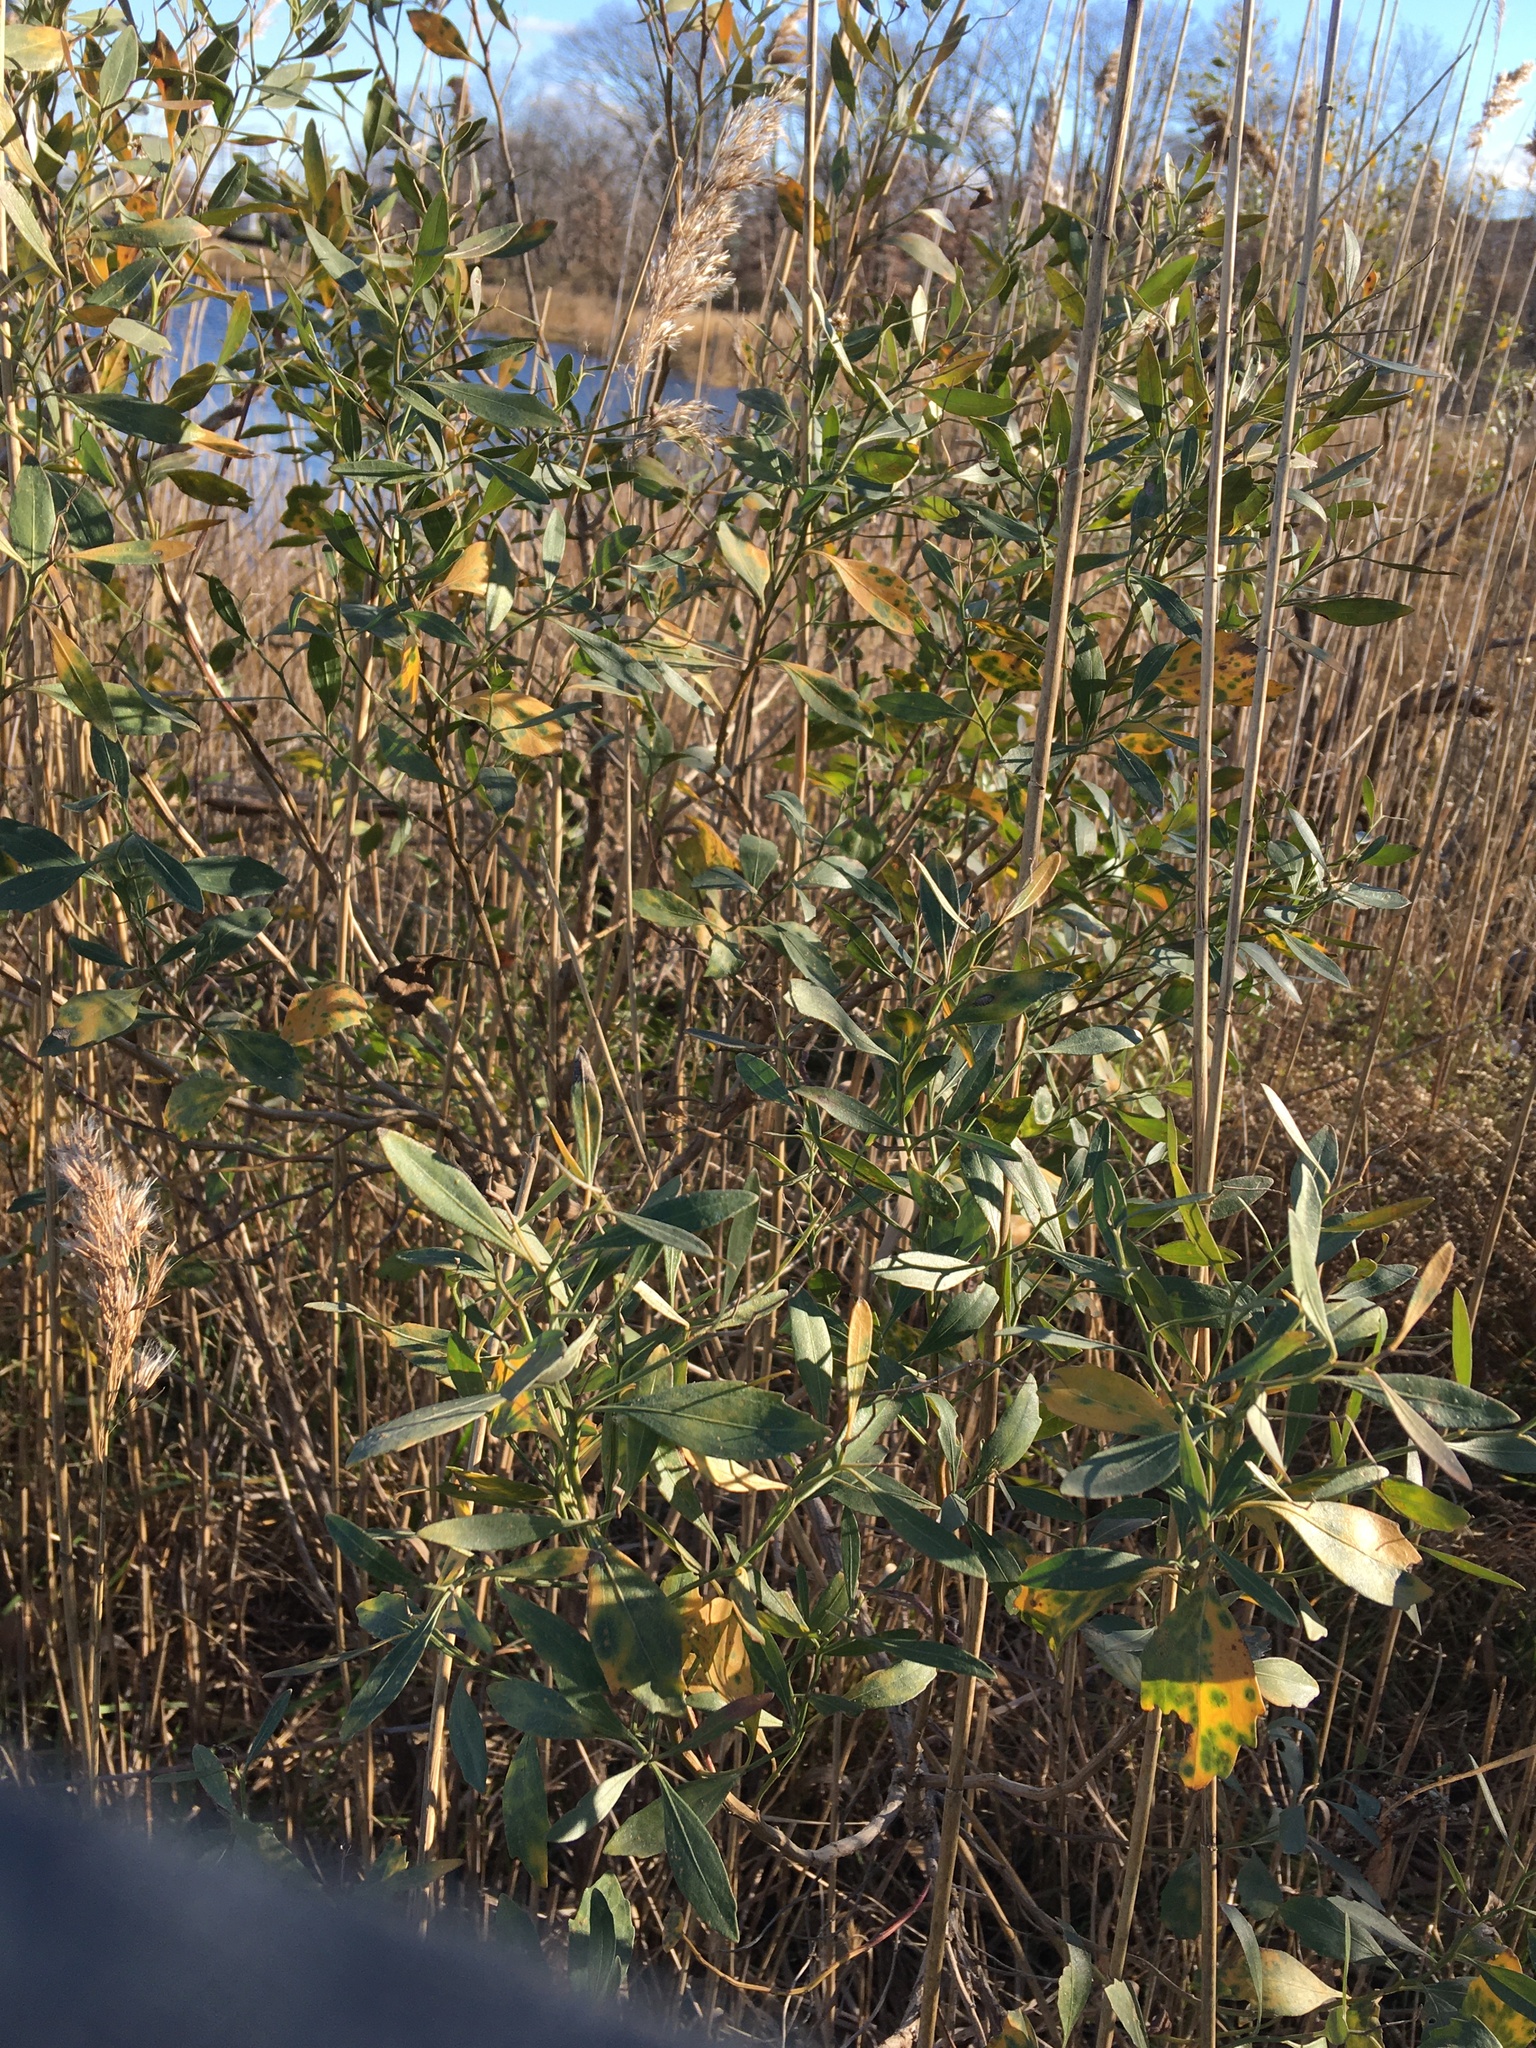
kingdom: Plantae
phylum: Tracheophyta
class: Magnoliopsida
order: Asterales
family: Asteraceae
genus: Baccharis
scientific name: Baccharis halimifolia
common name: Eastern baccharis
